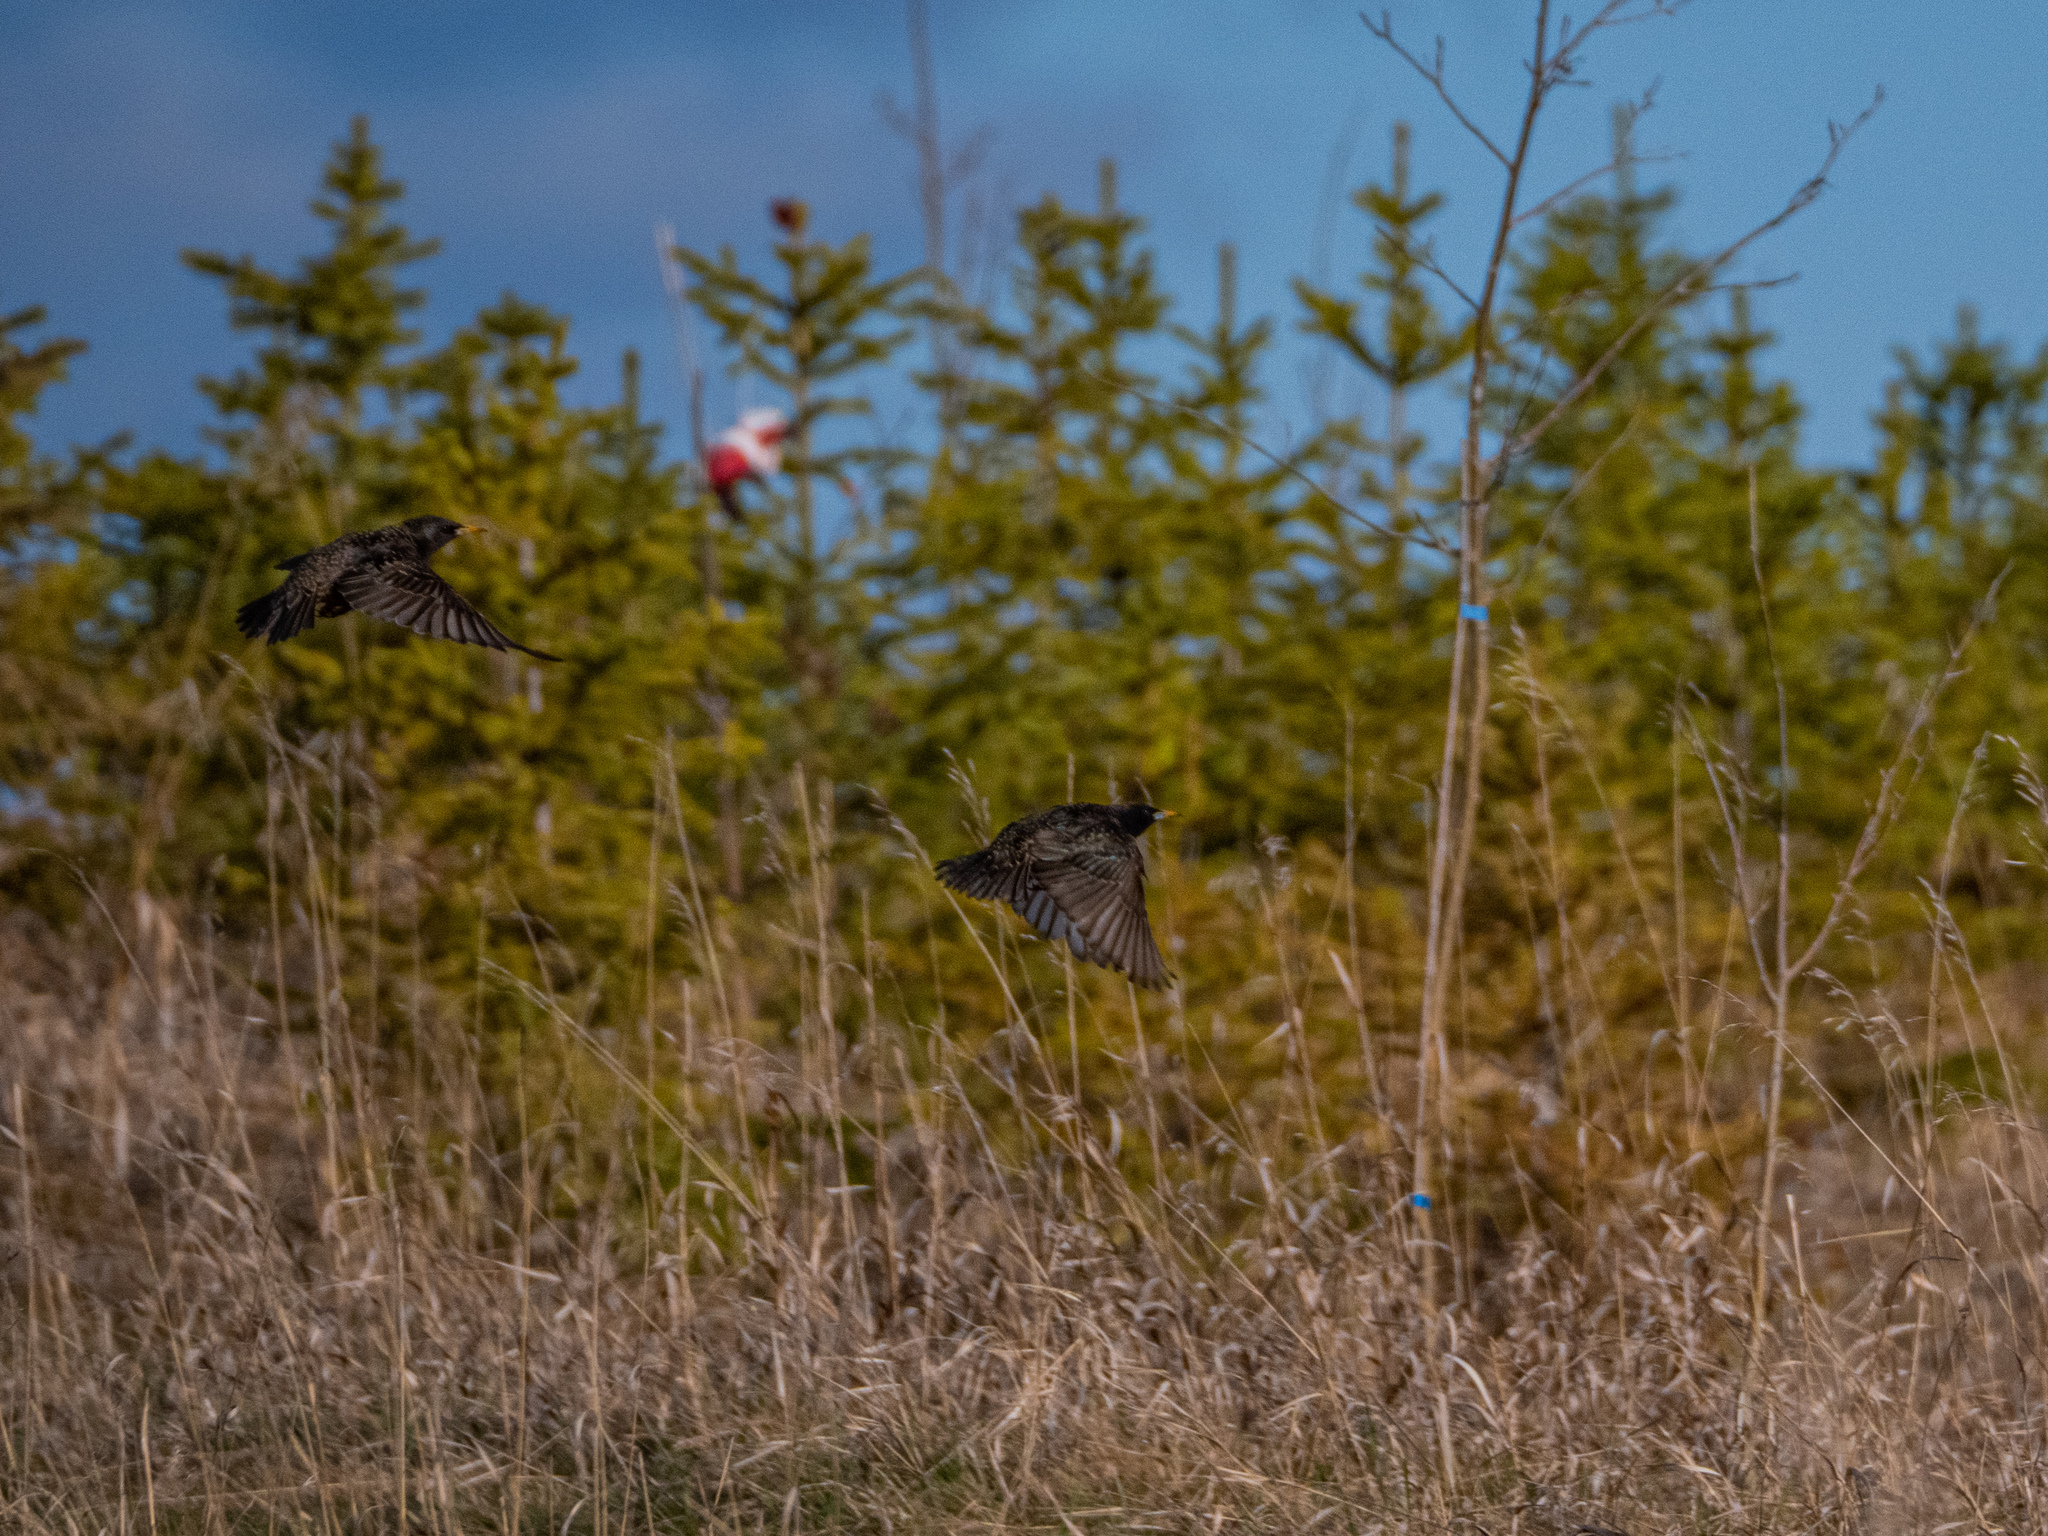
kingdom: Animalia
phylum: Chordata
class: Aves
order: Passeriformes
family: Sturnidae
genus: Sturnus
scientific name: Sturnus vulgaris
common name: Common starling
